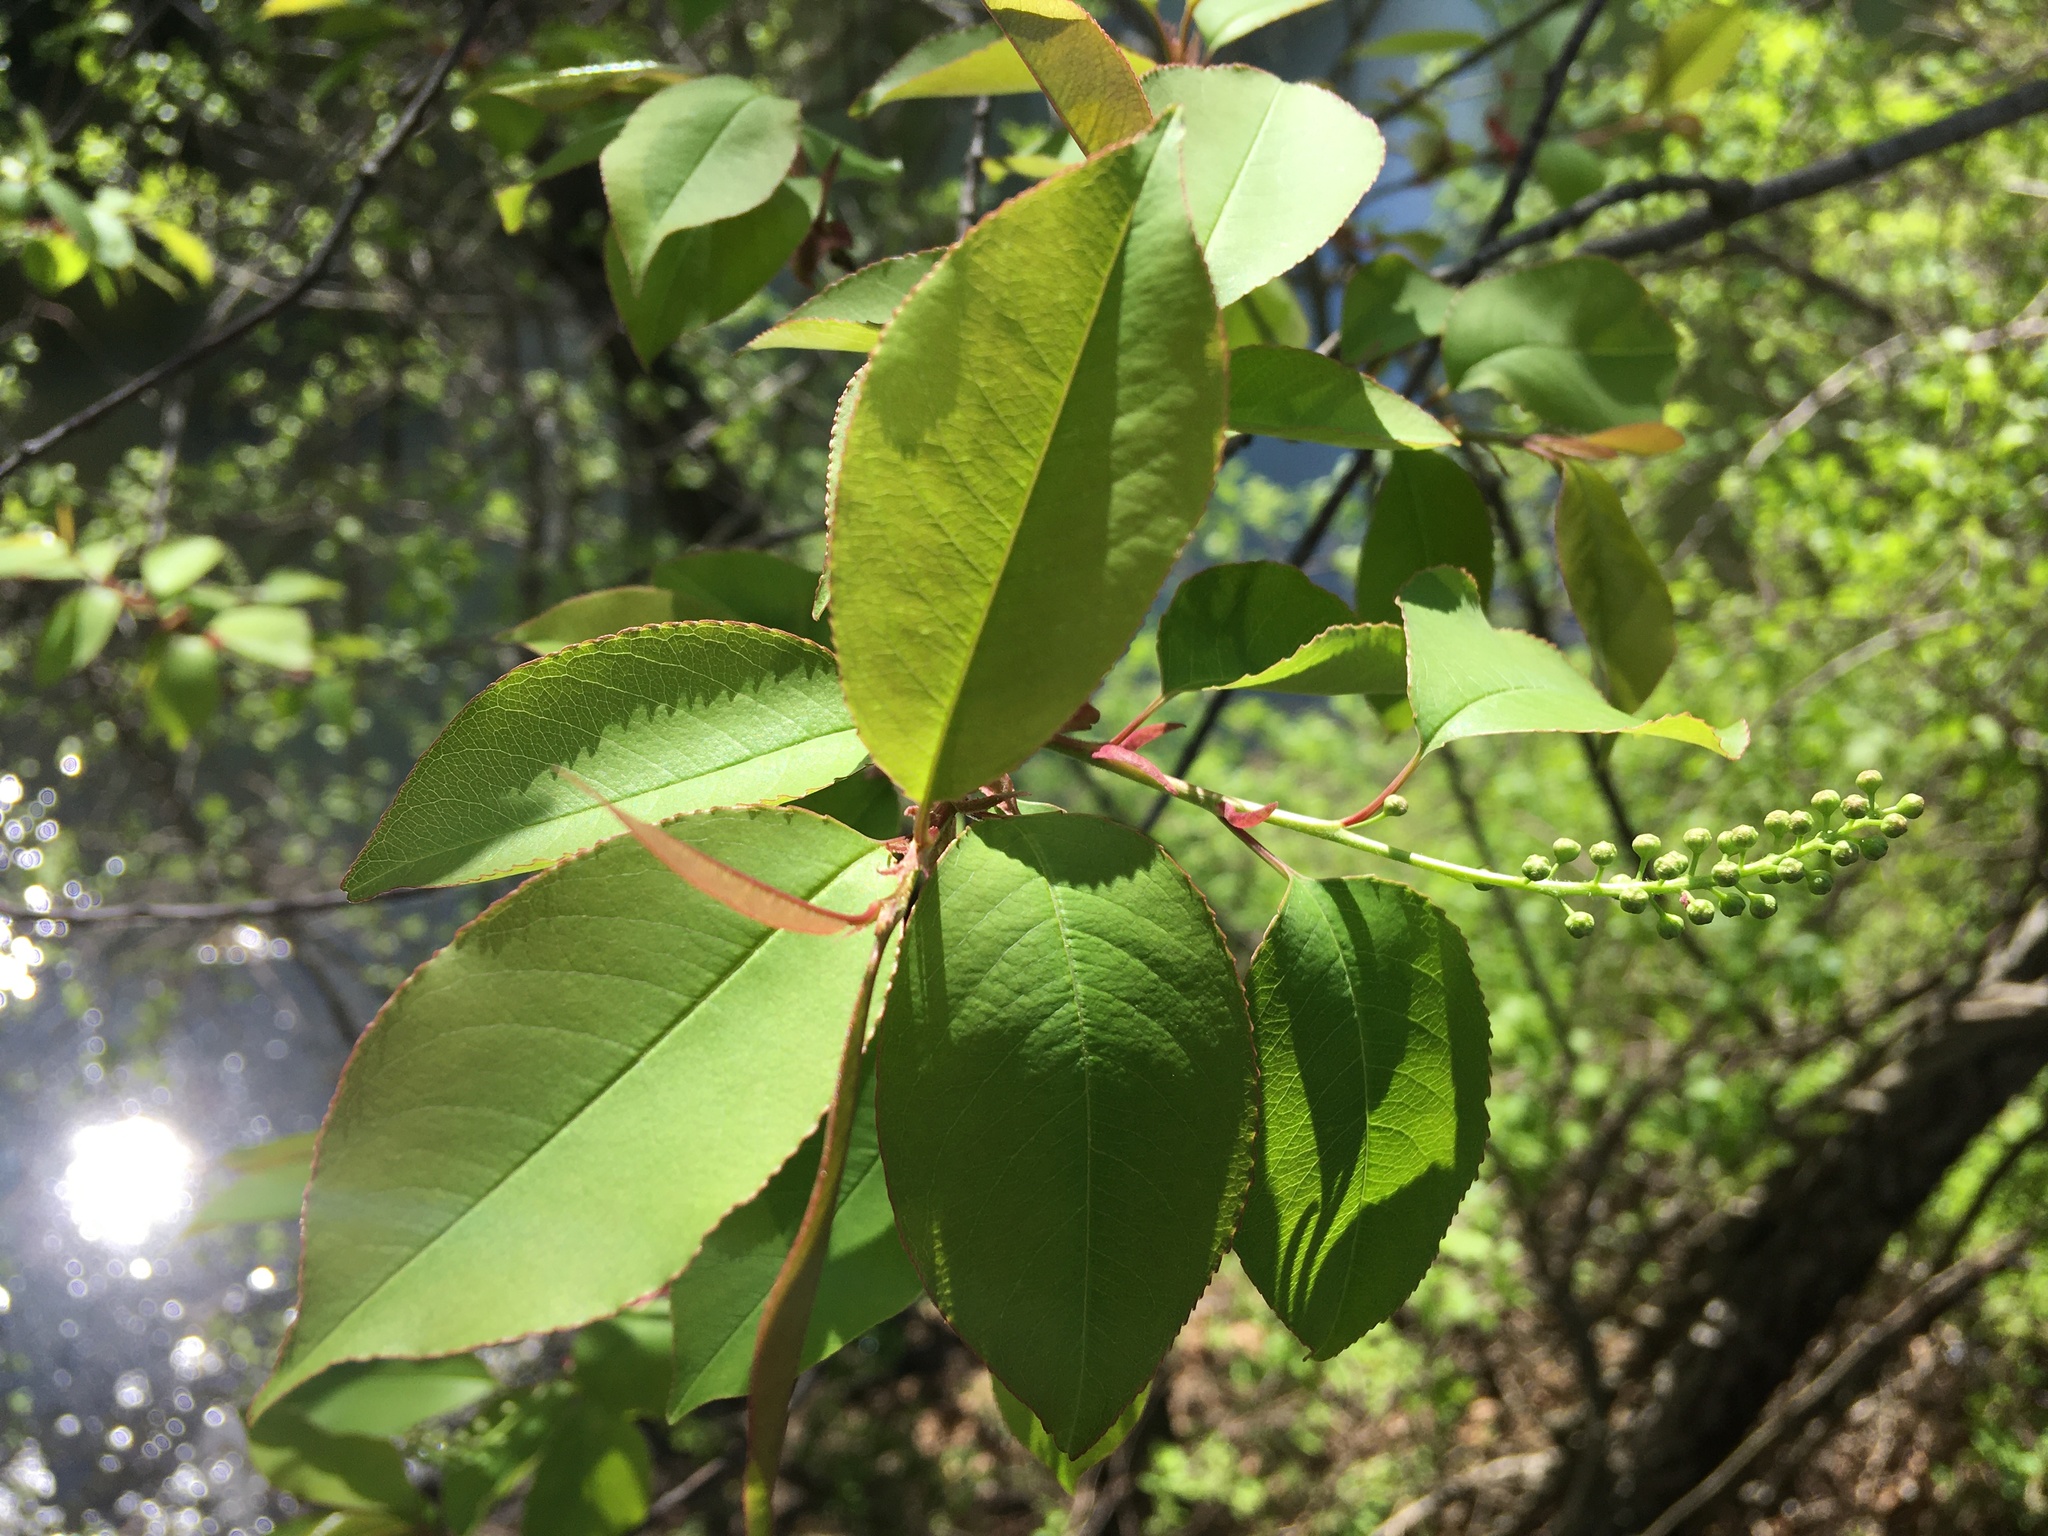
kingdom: Plantae
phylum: Tracheophyta
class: Magnoliopsida
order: Rosales
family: Rosaceae
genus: Prunus
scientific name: Prunus serotina
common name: Black cherry
